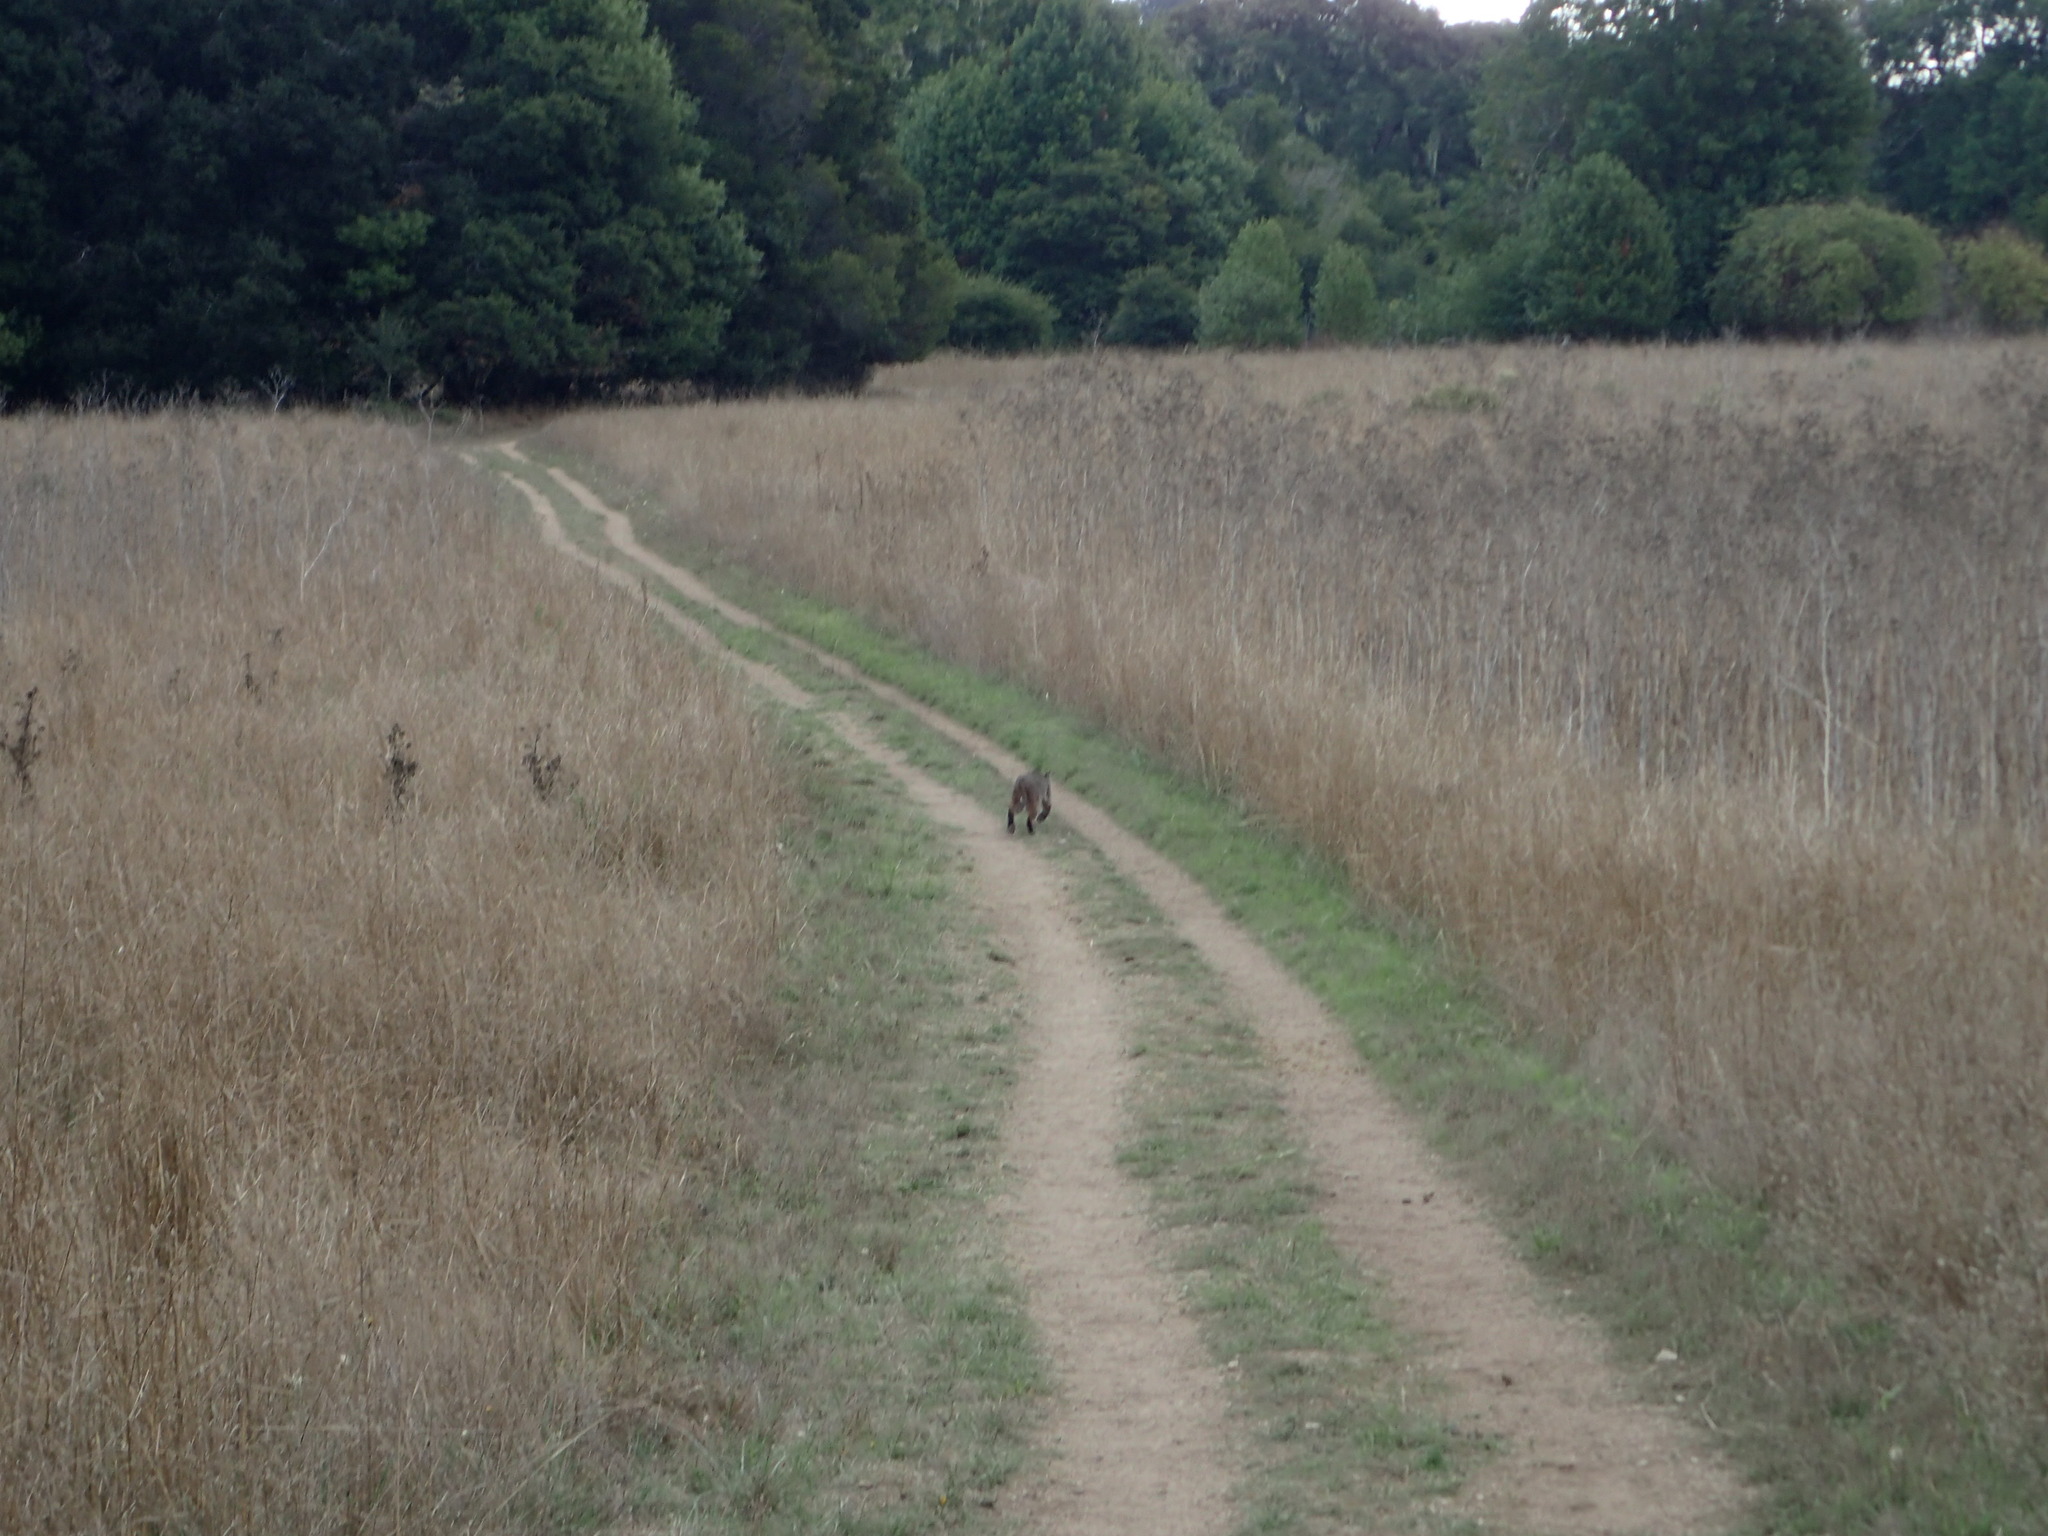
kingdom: Animalia
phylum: Chordata
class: Mammalia
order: Carnivora
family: Felidae
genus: Lynx
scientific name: Lynx rufus
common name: Bobcat
